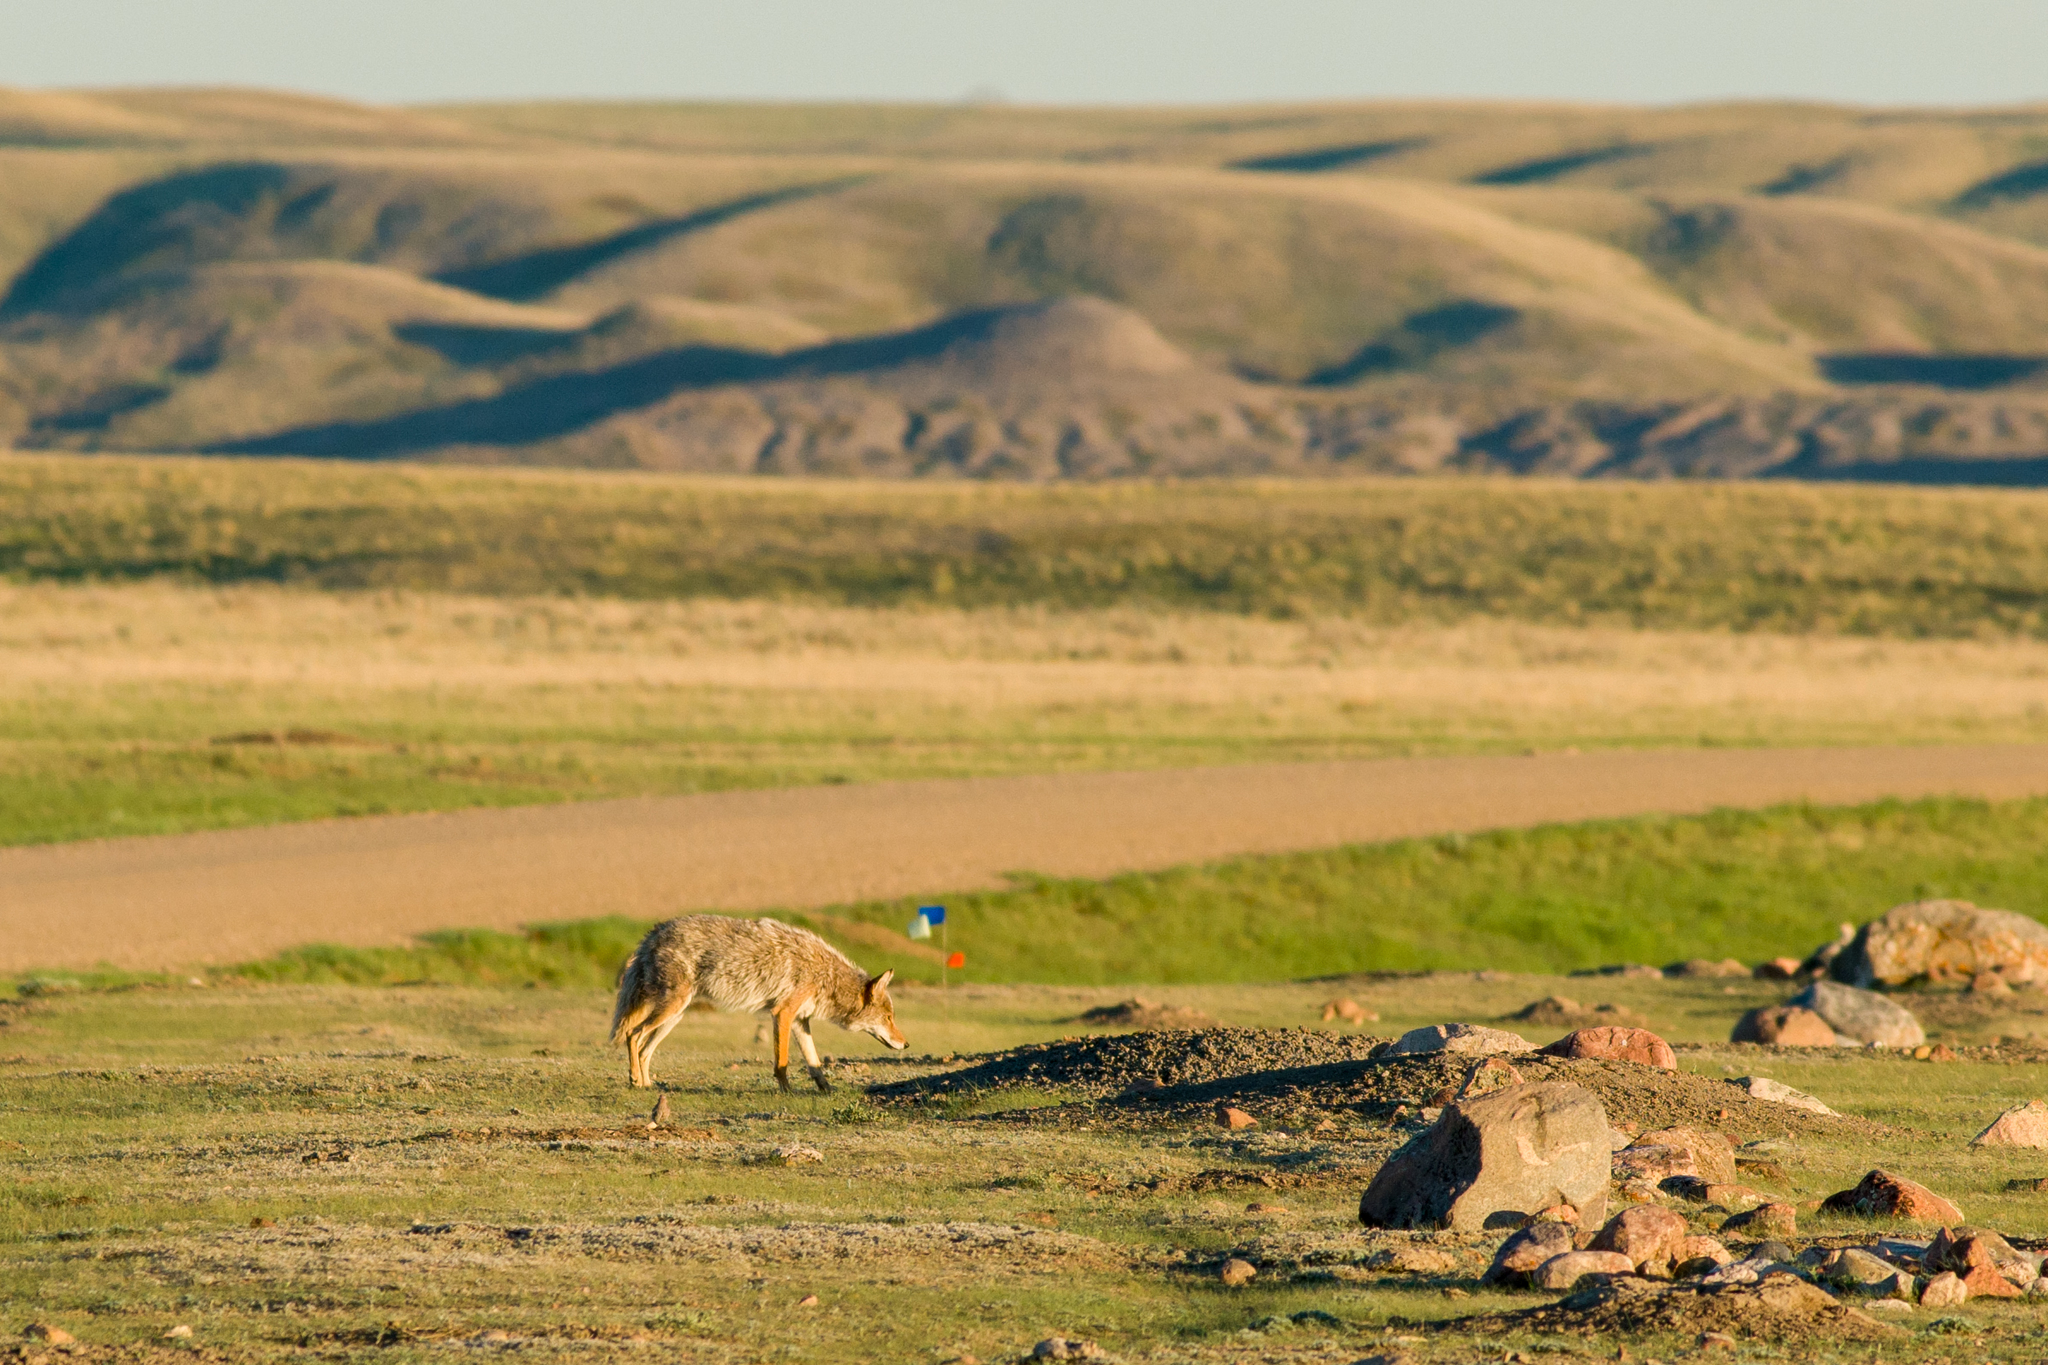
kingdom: Animalia
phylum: Chordata
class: Mammalia
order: Carnivora
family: Canidae
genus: Canis
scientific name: Canis latrans
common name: Coyote
